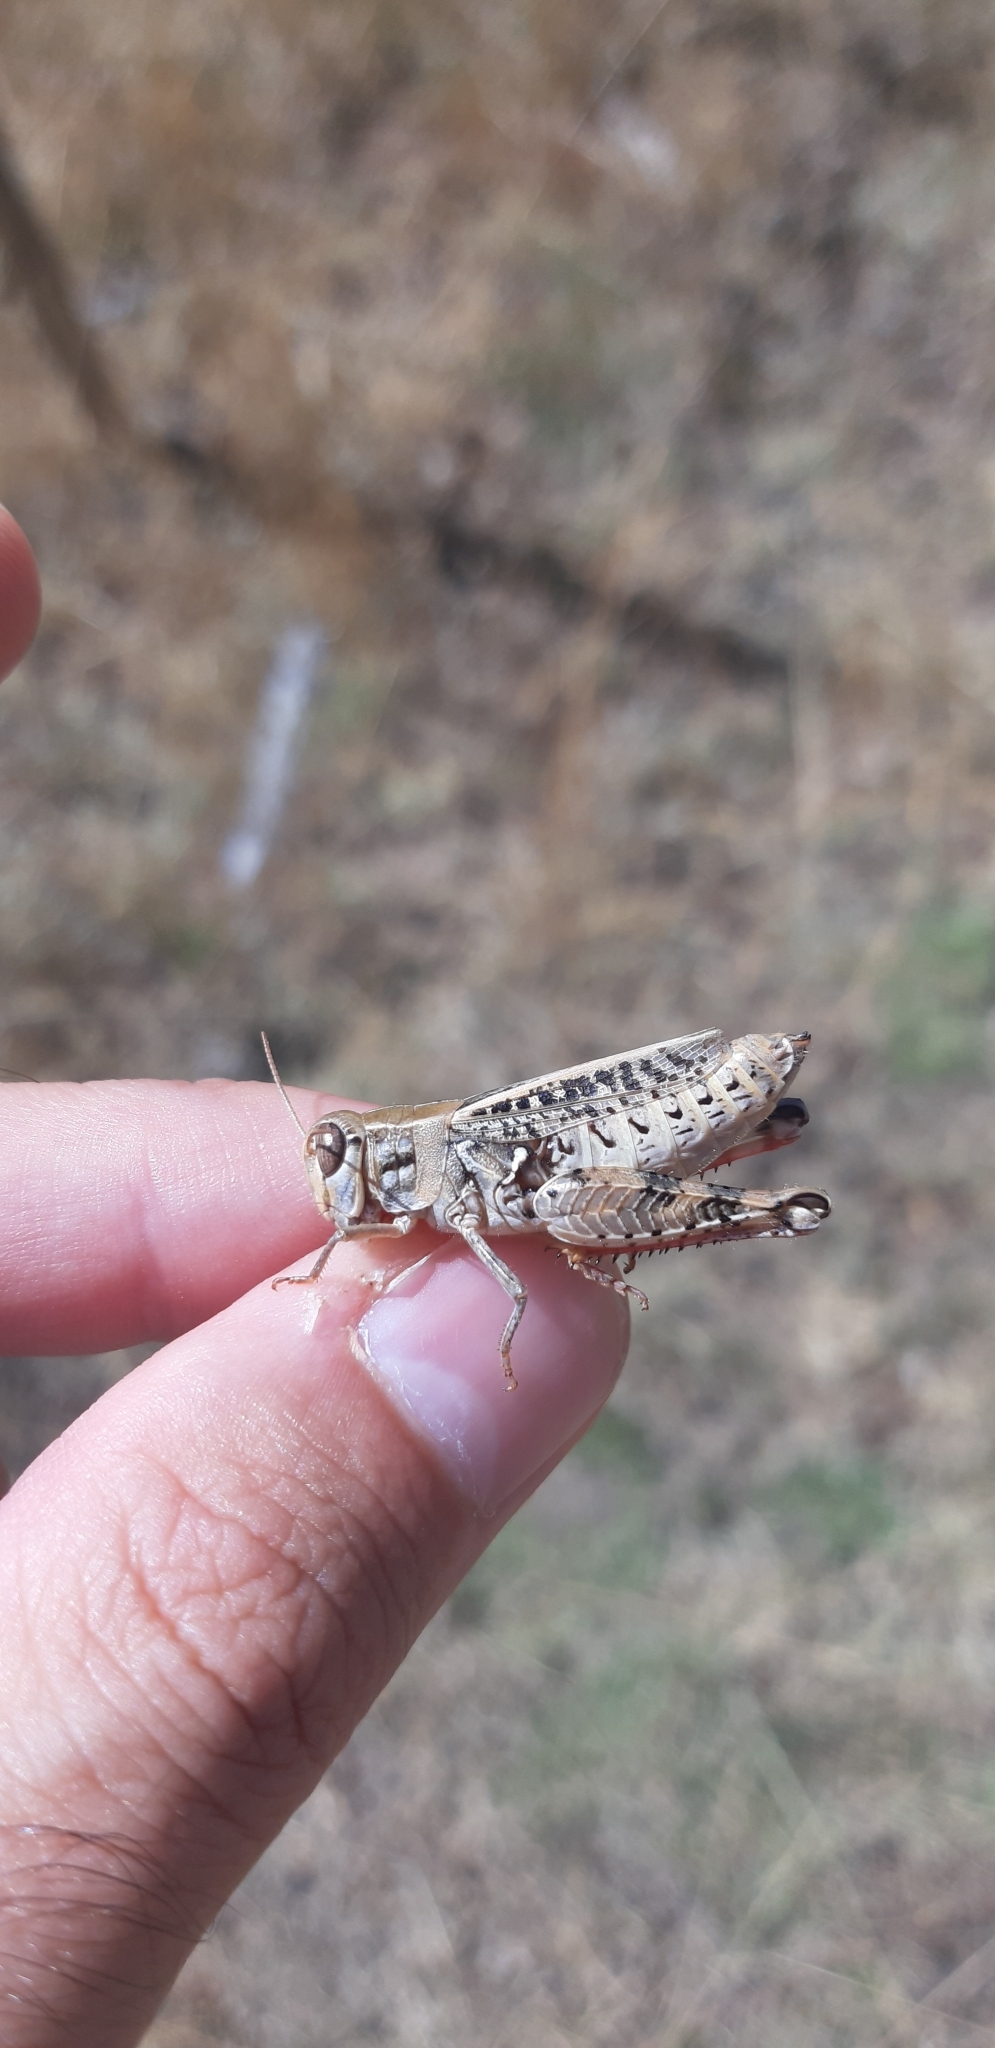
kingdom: Animalia
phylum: Arthropoda
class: Insecta
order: Orthoptera
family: Acrididae
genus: Calliptamus
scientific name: Calliptamus siciliae
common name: Pygmy pincer grasshopper
